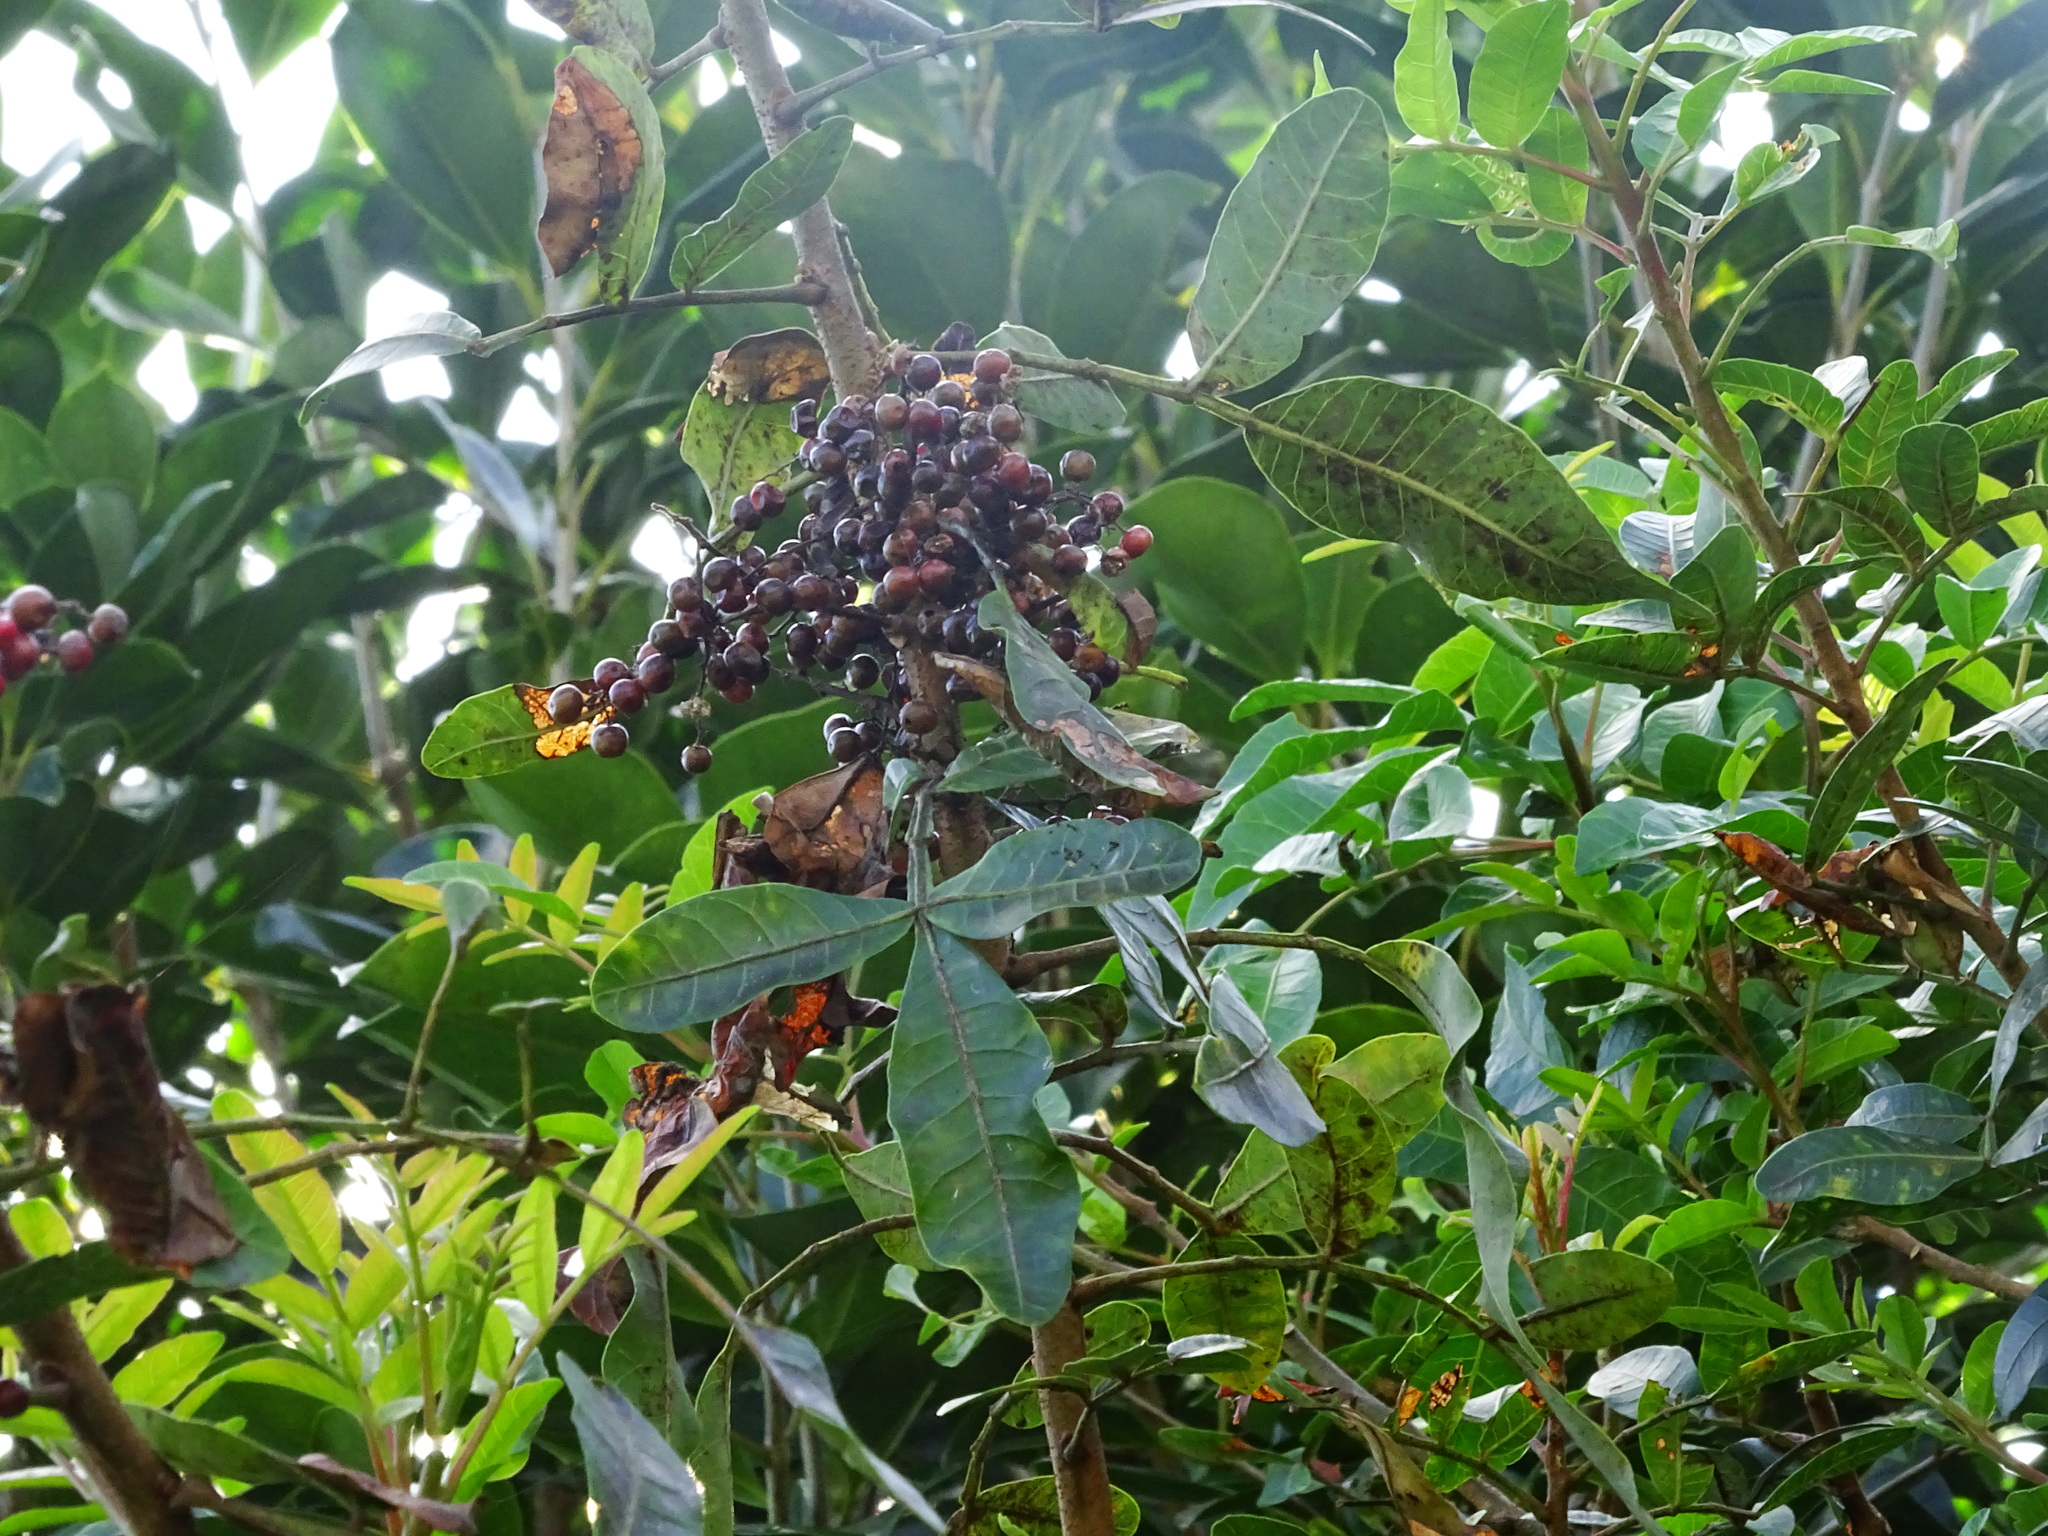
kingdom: Plantae
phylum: Tracheophyta
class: Magnoliopsida
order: Sapindales
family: Anacardiaceae
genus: Schinus
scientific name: Schinus terebinthifolia
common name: Brazilian peppertree
